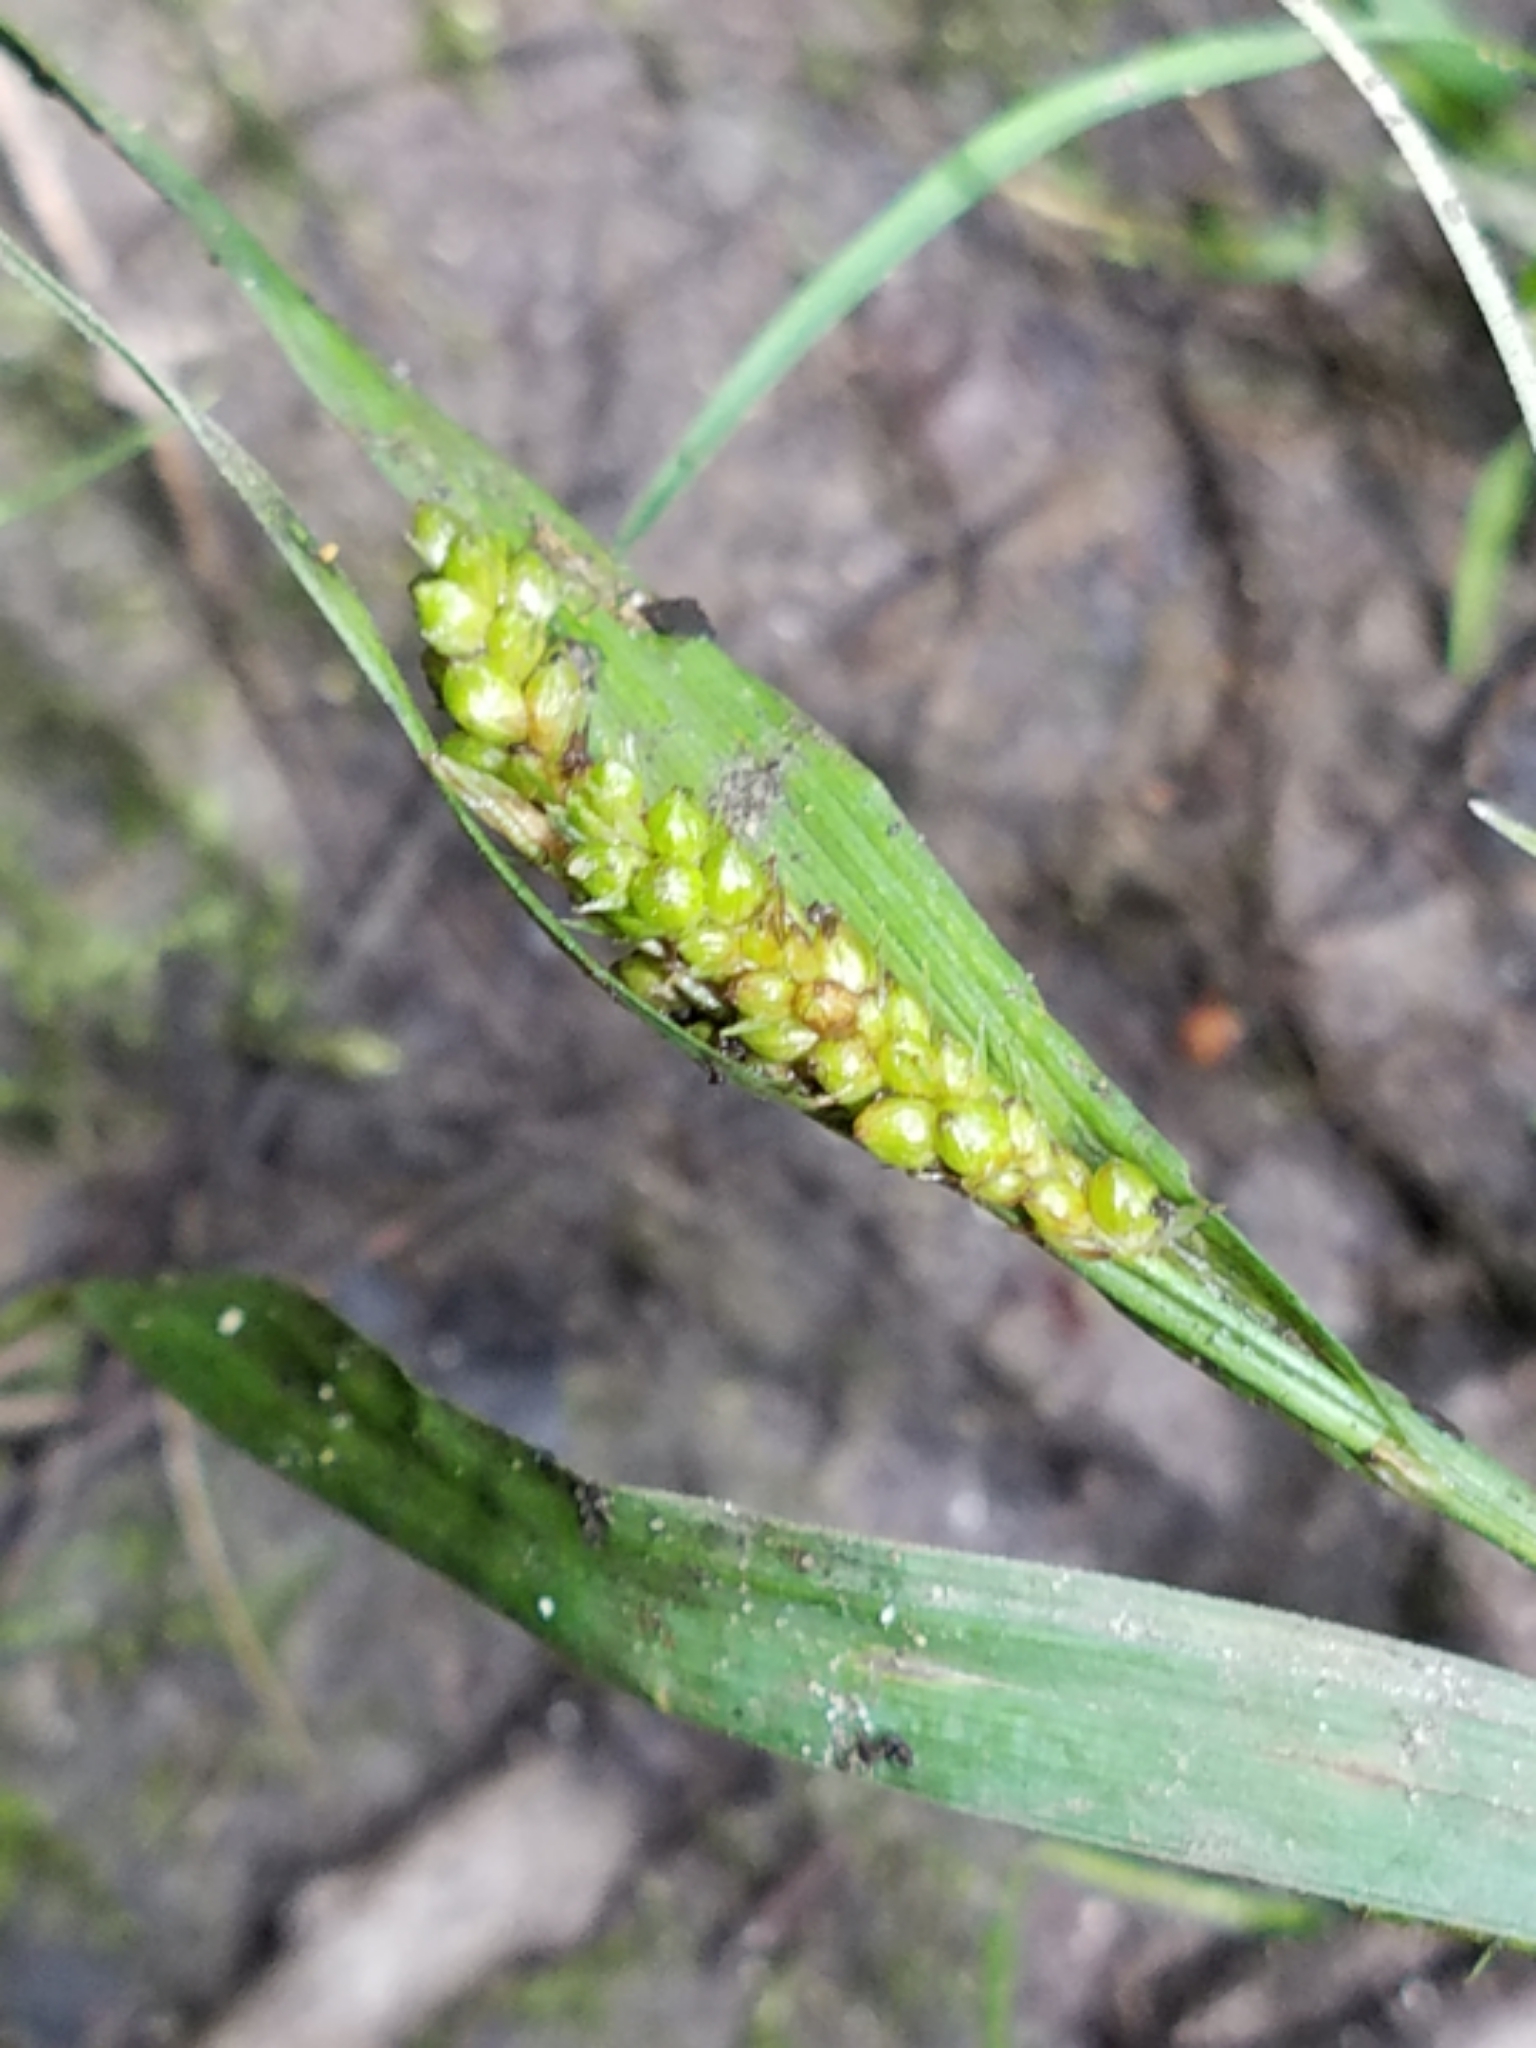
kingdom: Plantae
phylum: Tracheophyta
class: Liliopsida
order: Poales
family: Cyperaceae
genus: Carex
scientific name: Carex granularis
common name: Granular sedge
